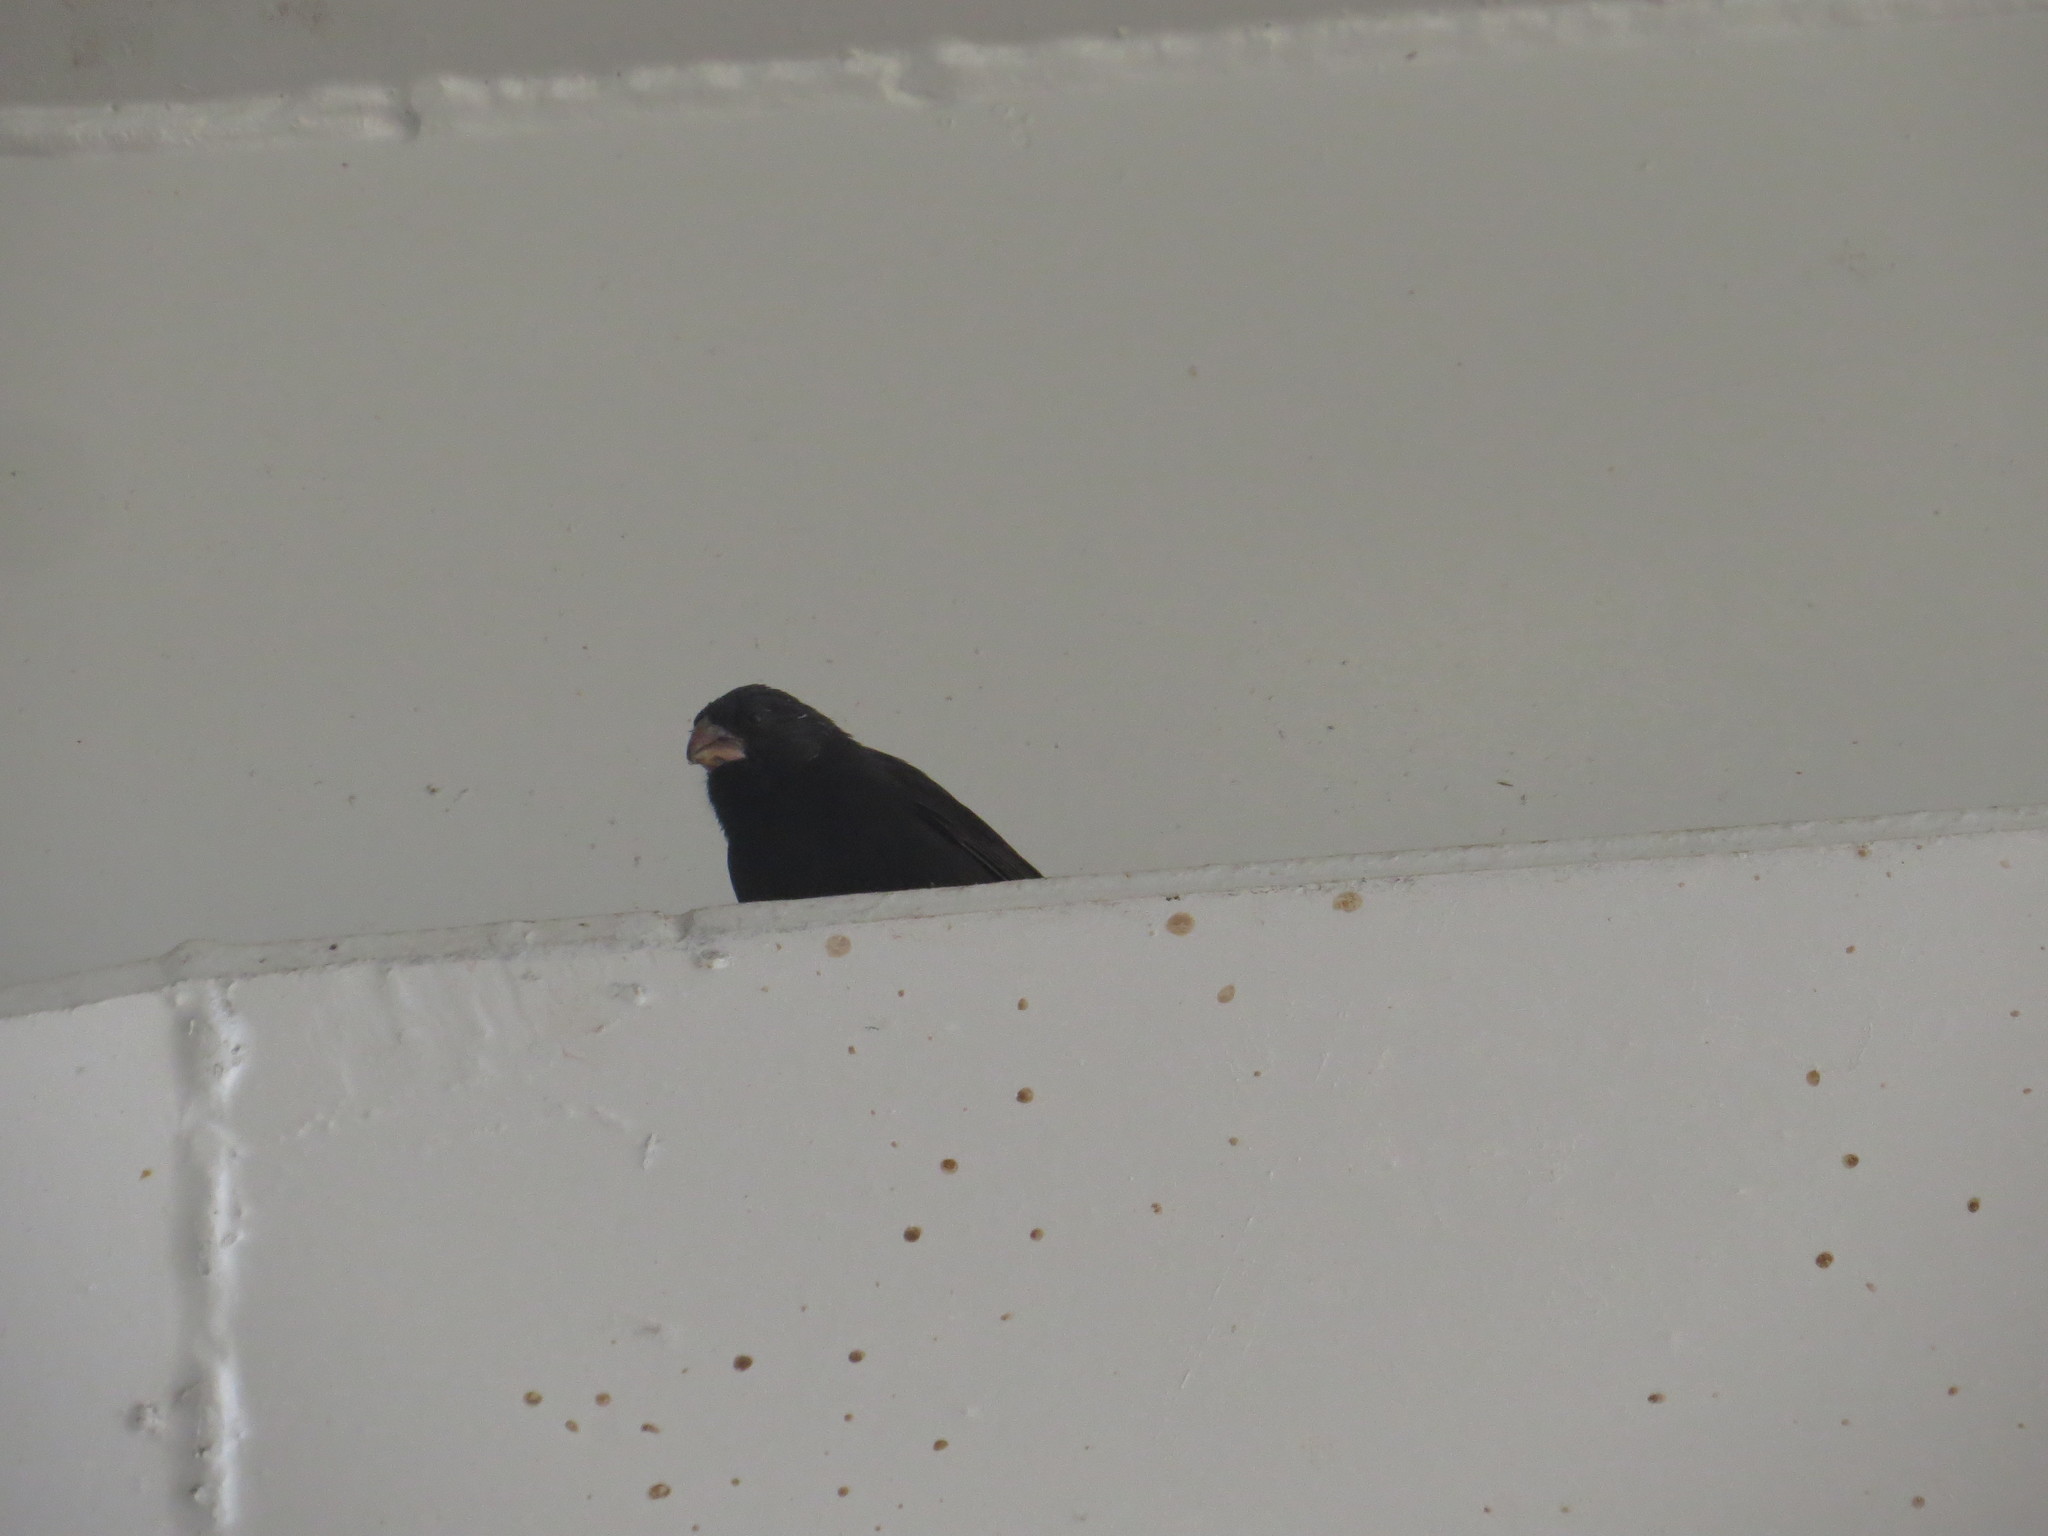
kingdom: Animalia
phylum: Chordata
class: Aves
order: Passeriformes
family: Thraupidae
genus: Geospiza
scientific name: Geospiza fortis
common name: Medium ground finch
